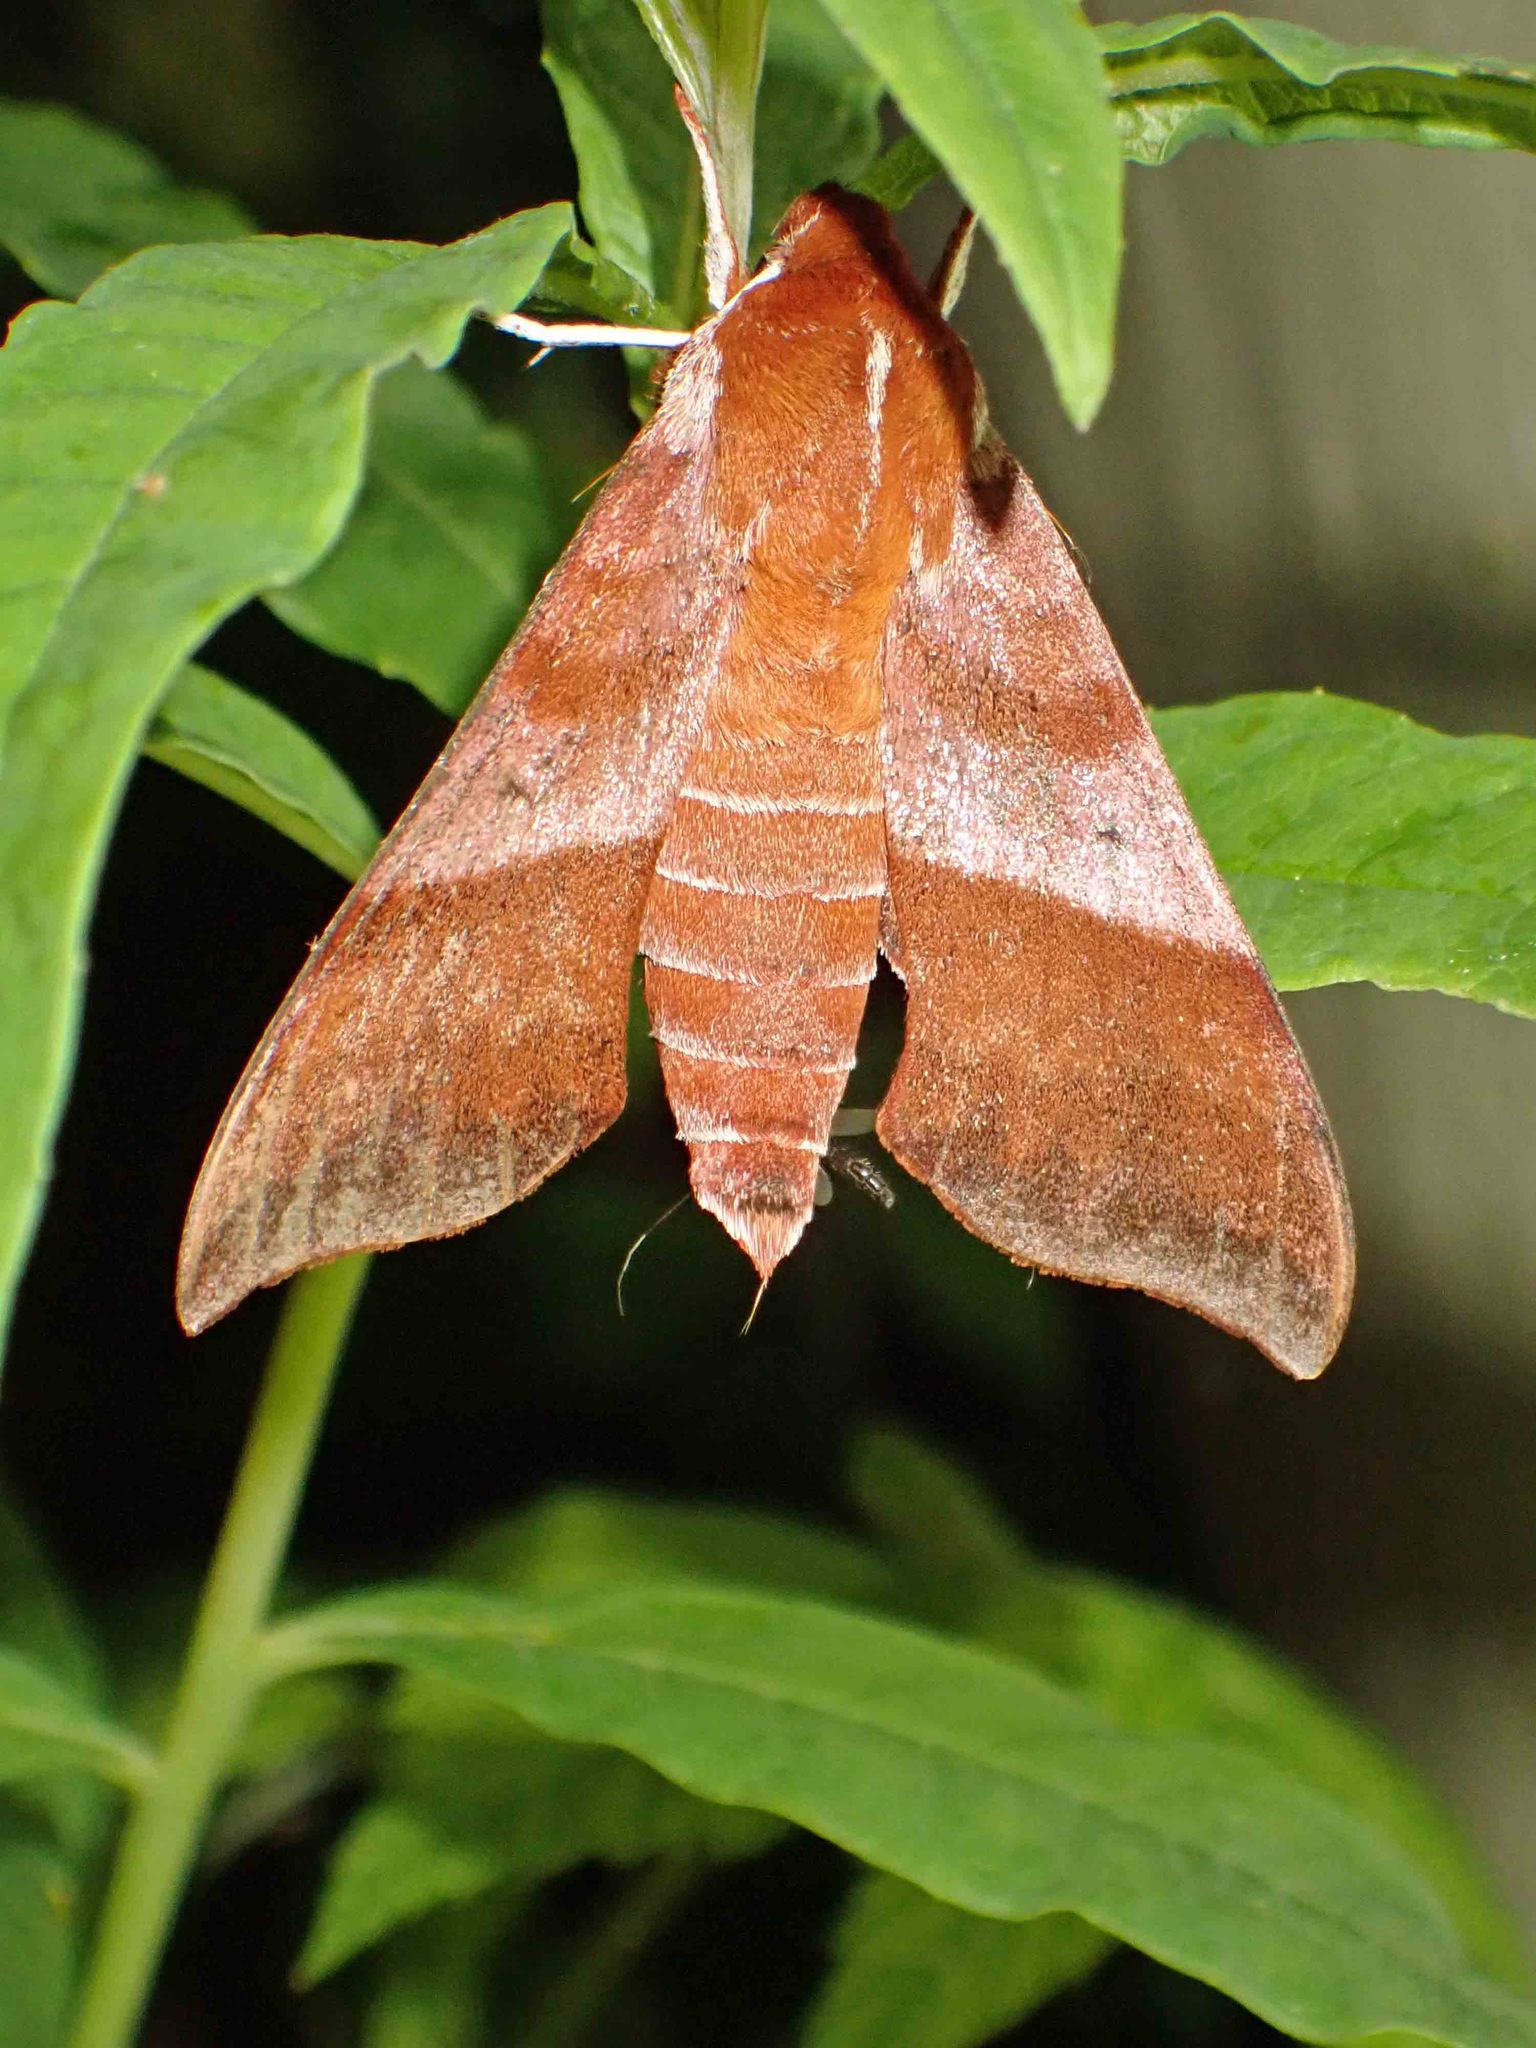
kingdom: Animalia
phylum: Arthropoda
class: Insecta
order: Lepidoptera
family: Sphingidae
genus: Darapsa
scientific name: Darapsa choerilus
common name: Azalea sphinx
